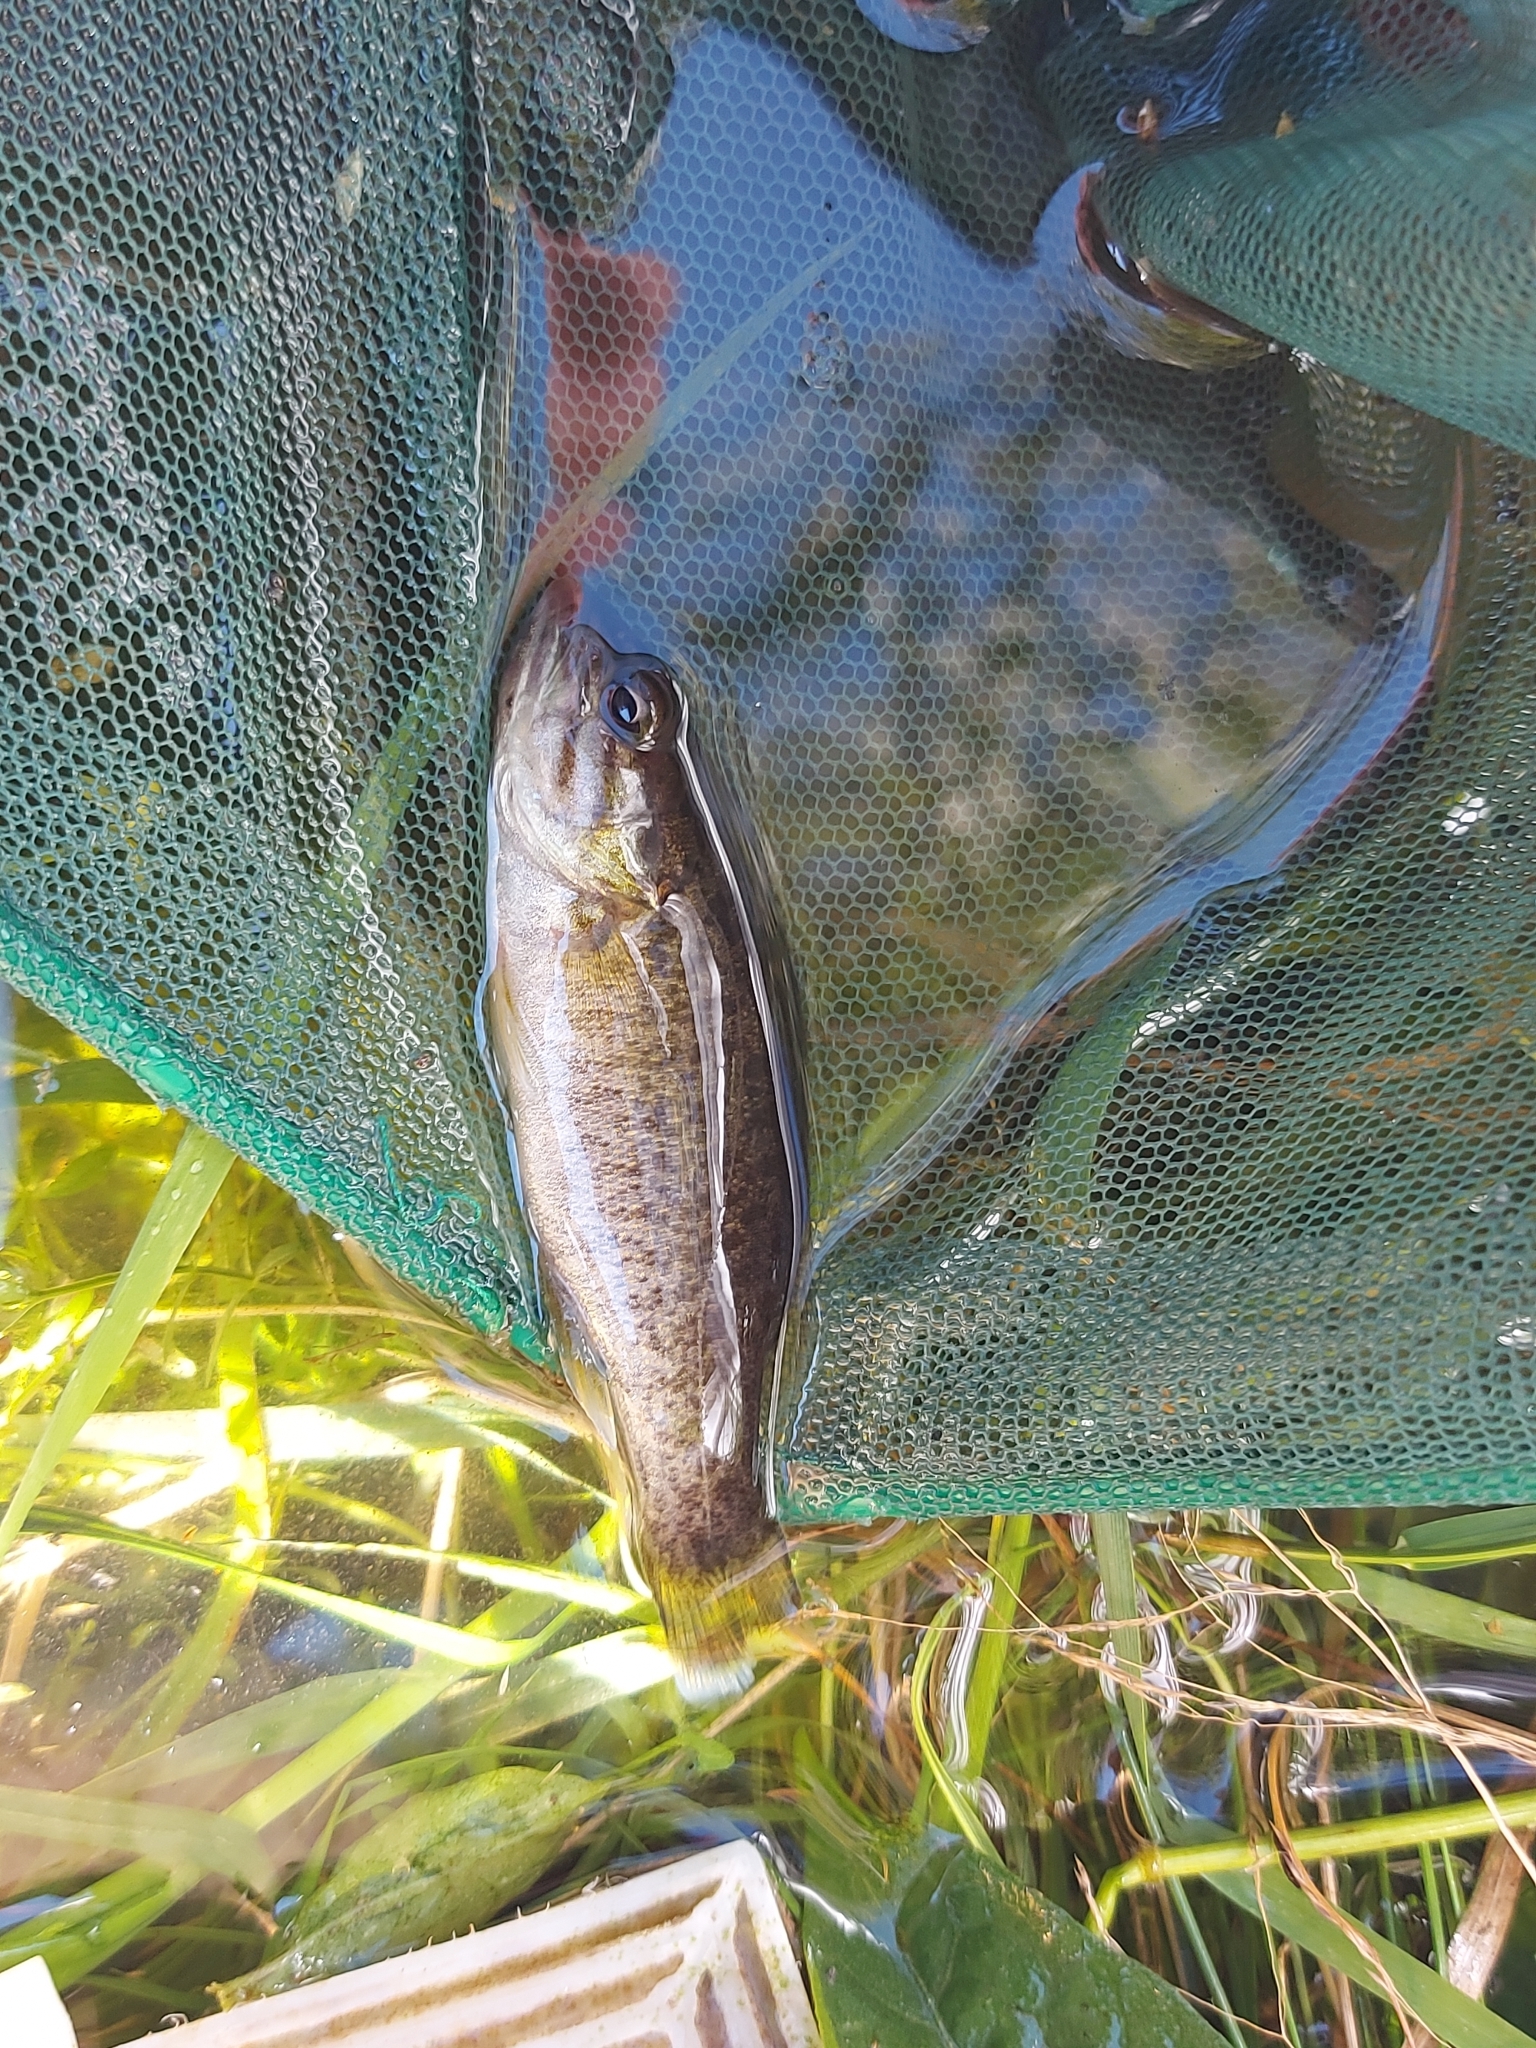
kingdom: Animalia
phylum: Chordata
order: Perciformes
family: Centrarchidae
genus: Micropterus
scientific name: Micropterus dolomieu
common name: Smallmouth bass
